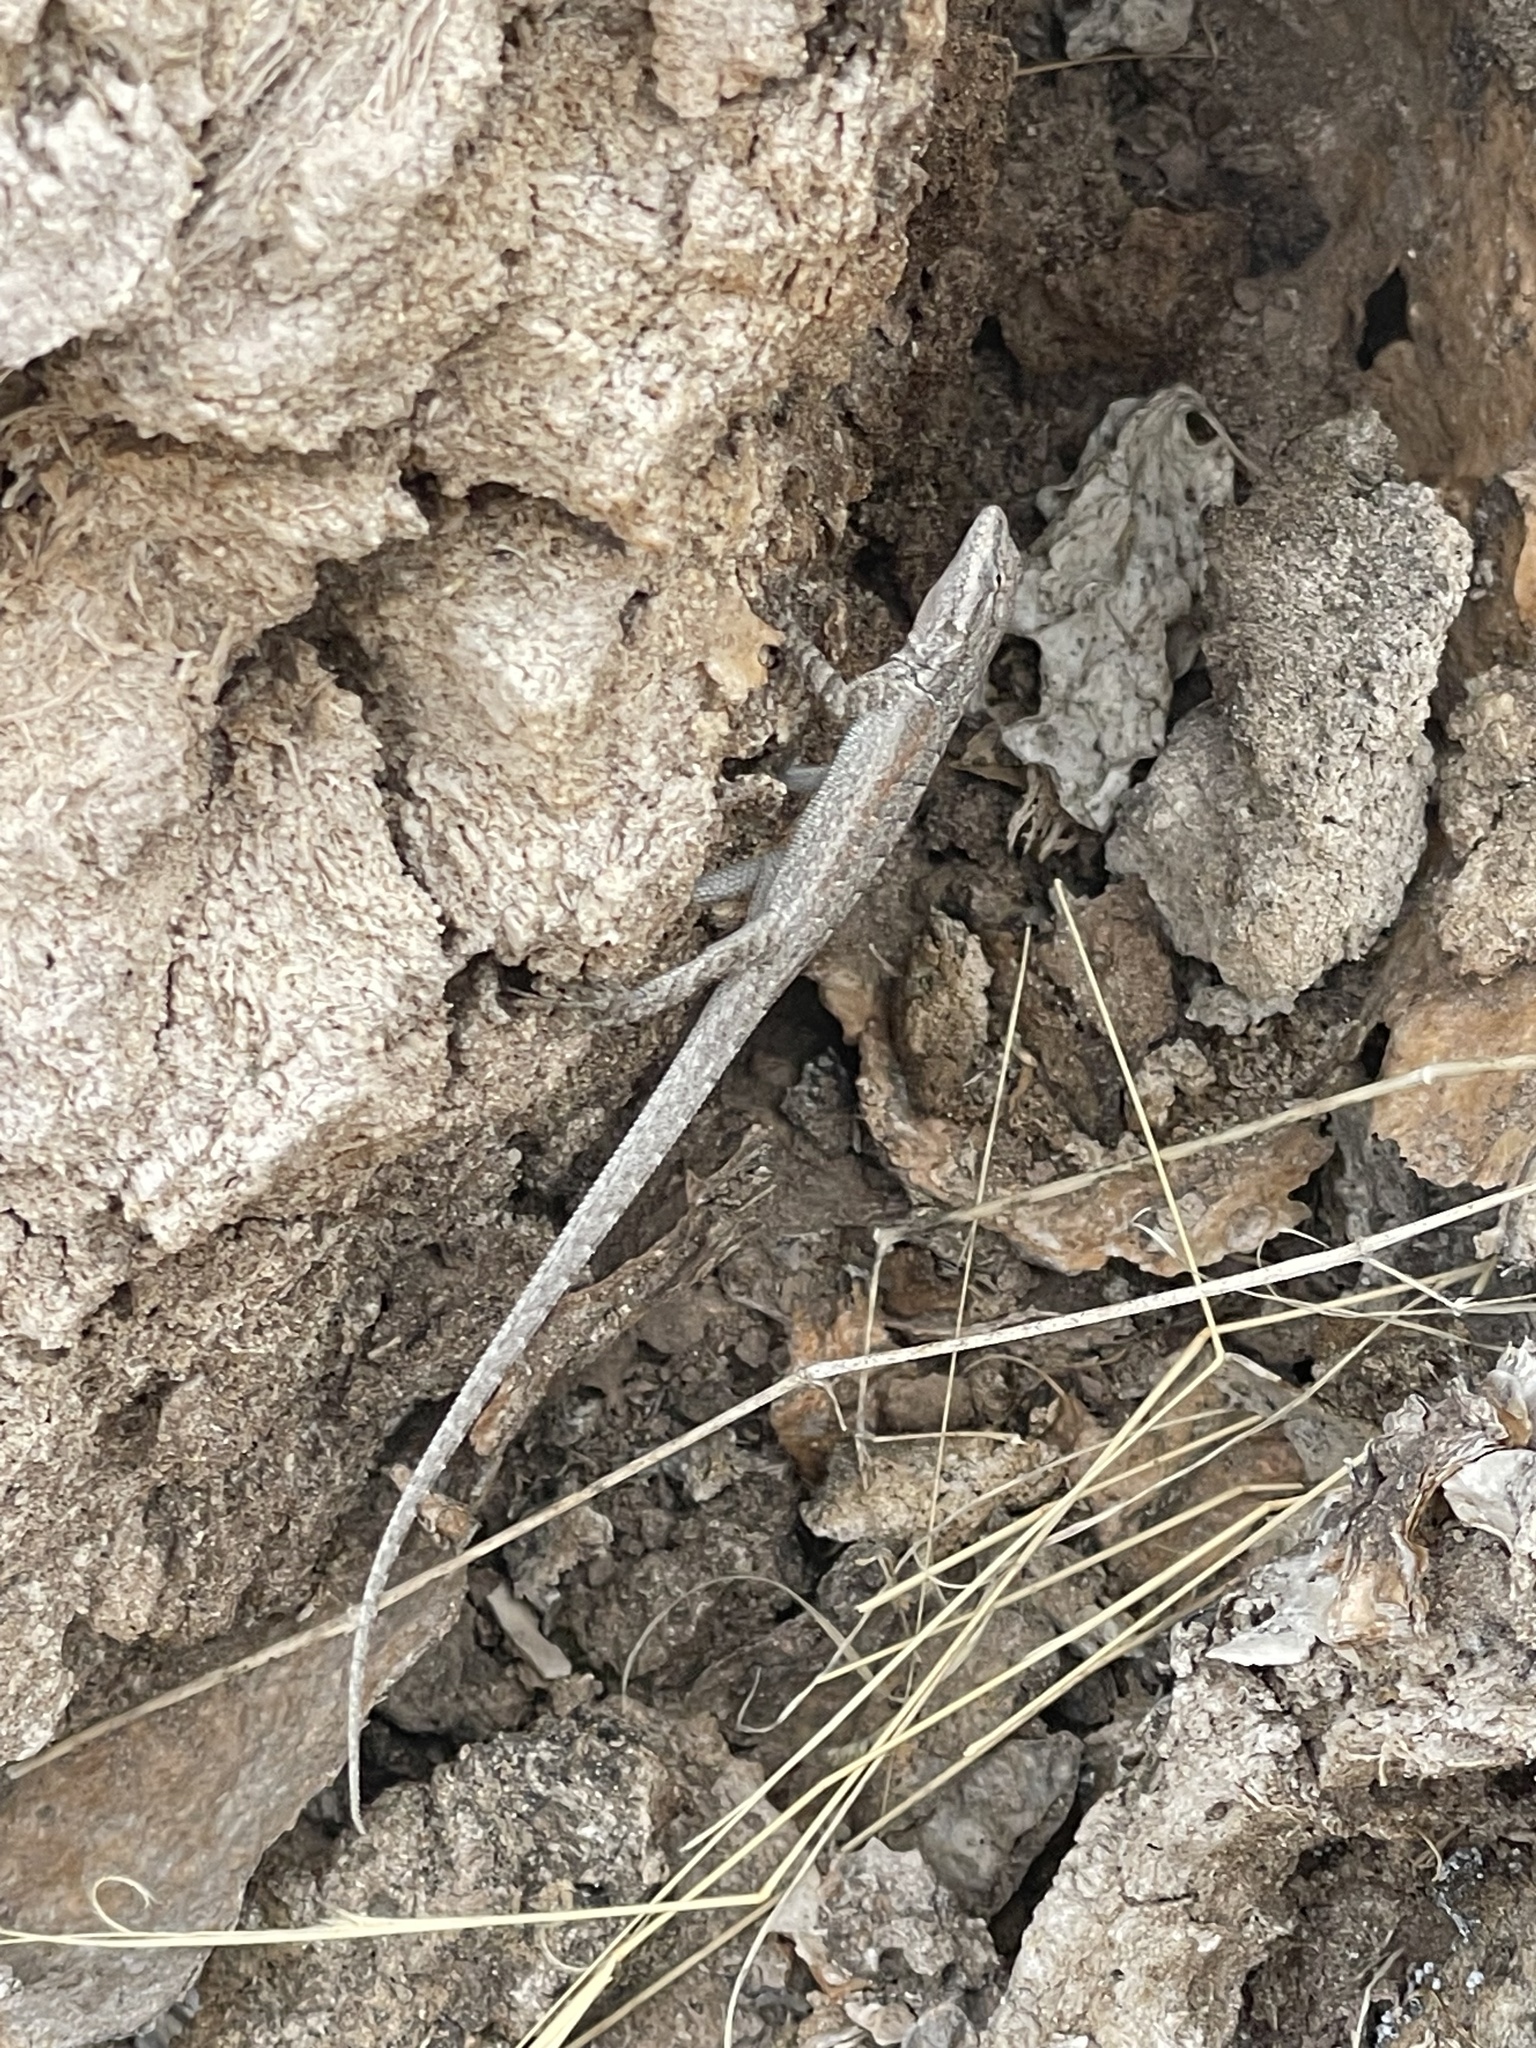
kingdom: Animalia
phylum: Chordata
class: Squamata
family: Phrynosomatidae
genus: Urosaurus
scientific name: Urosaurus nigricauda
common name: Baja california brush lizard
